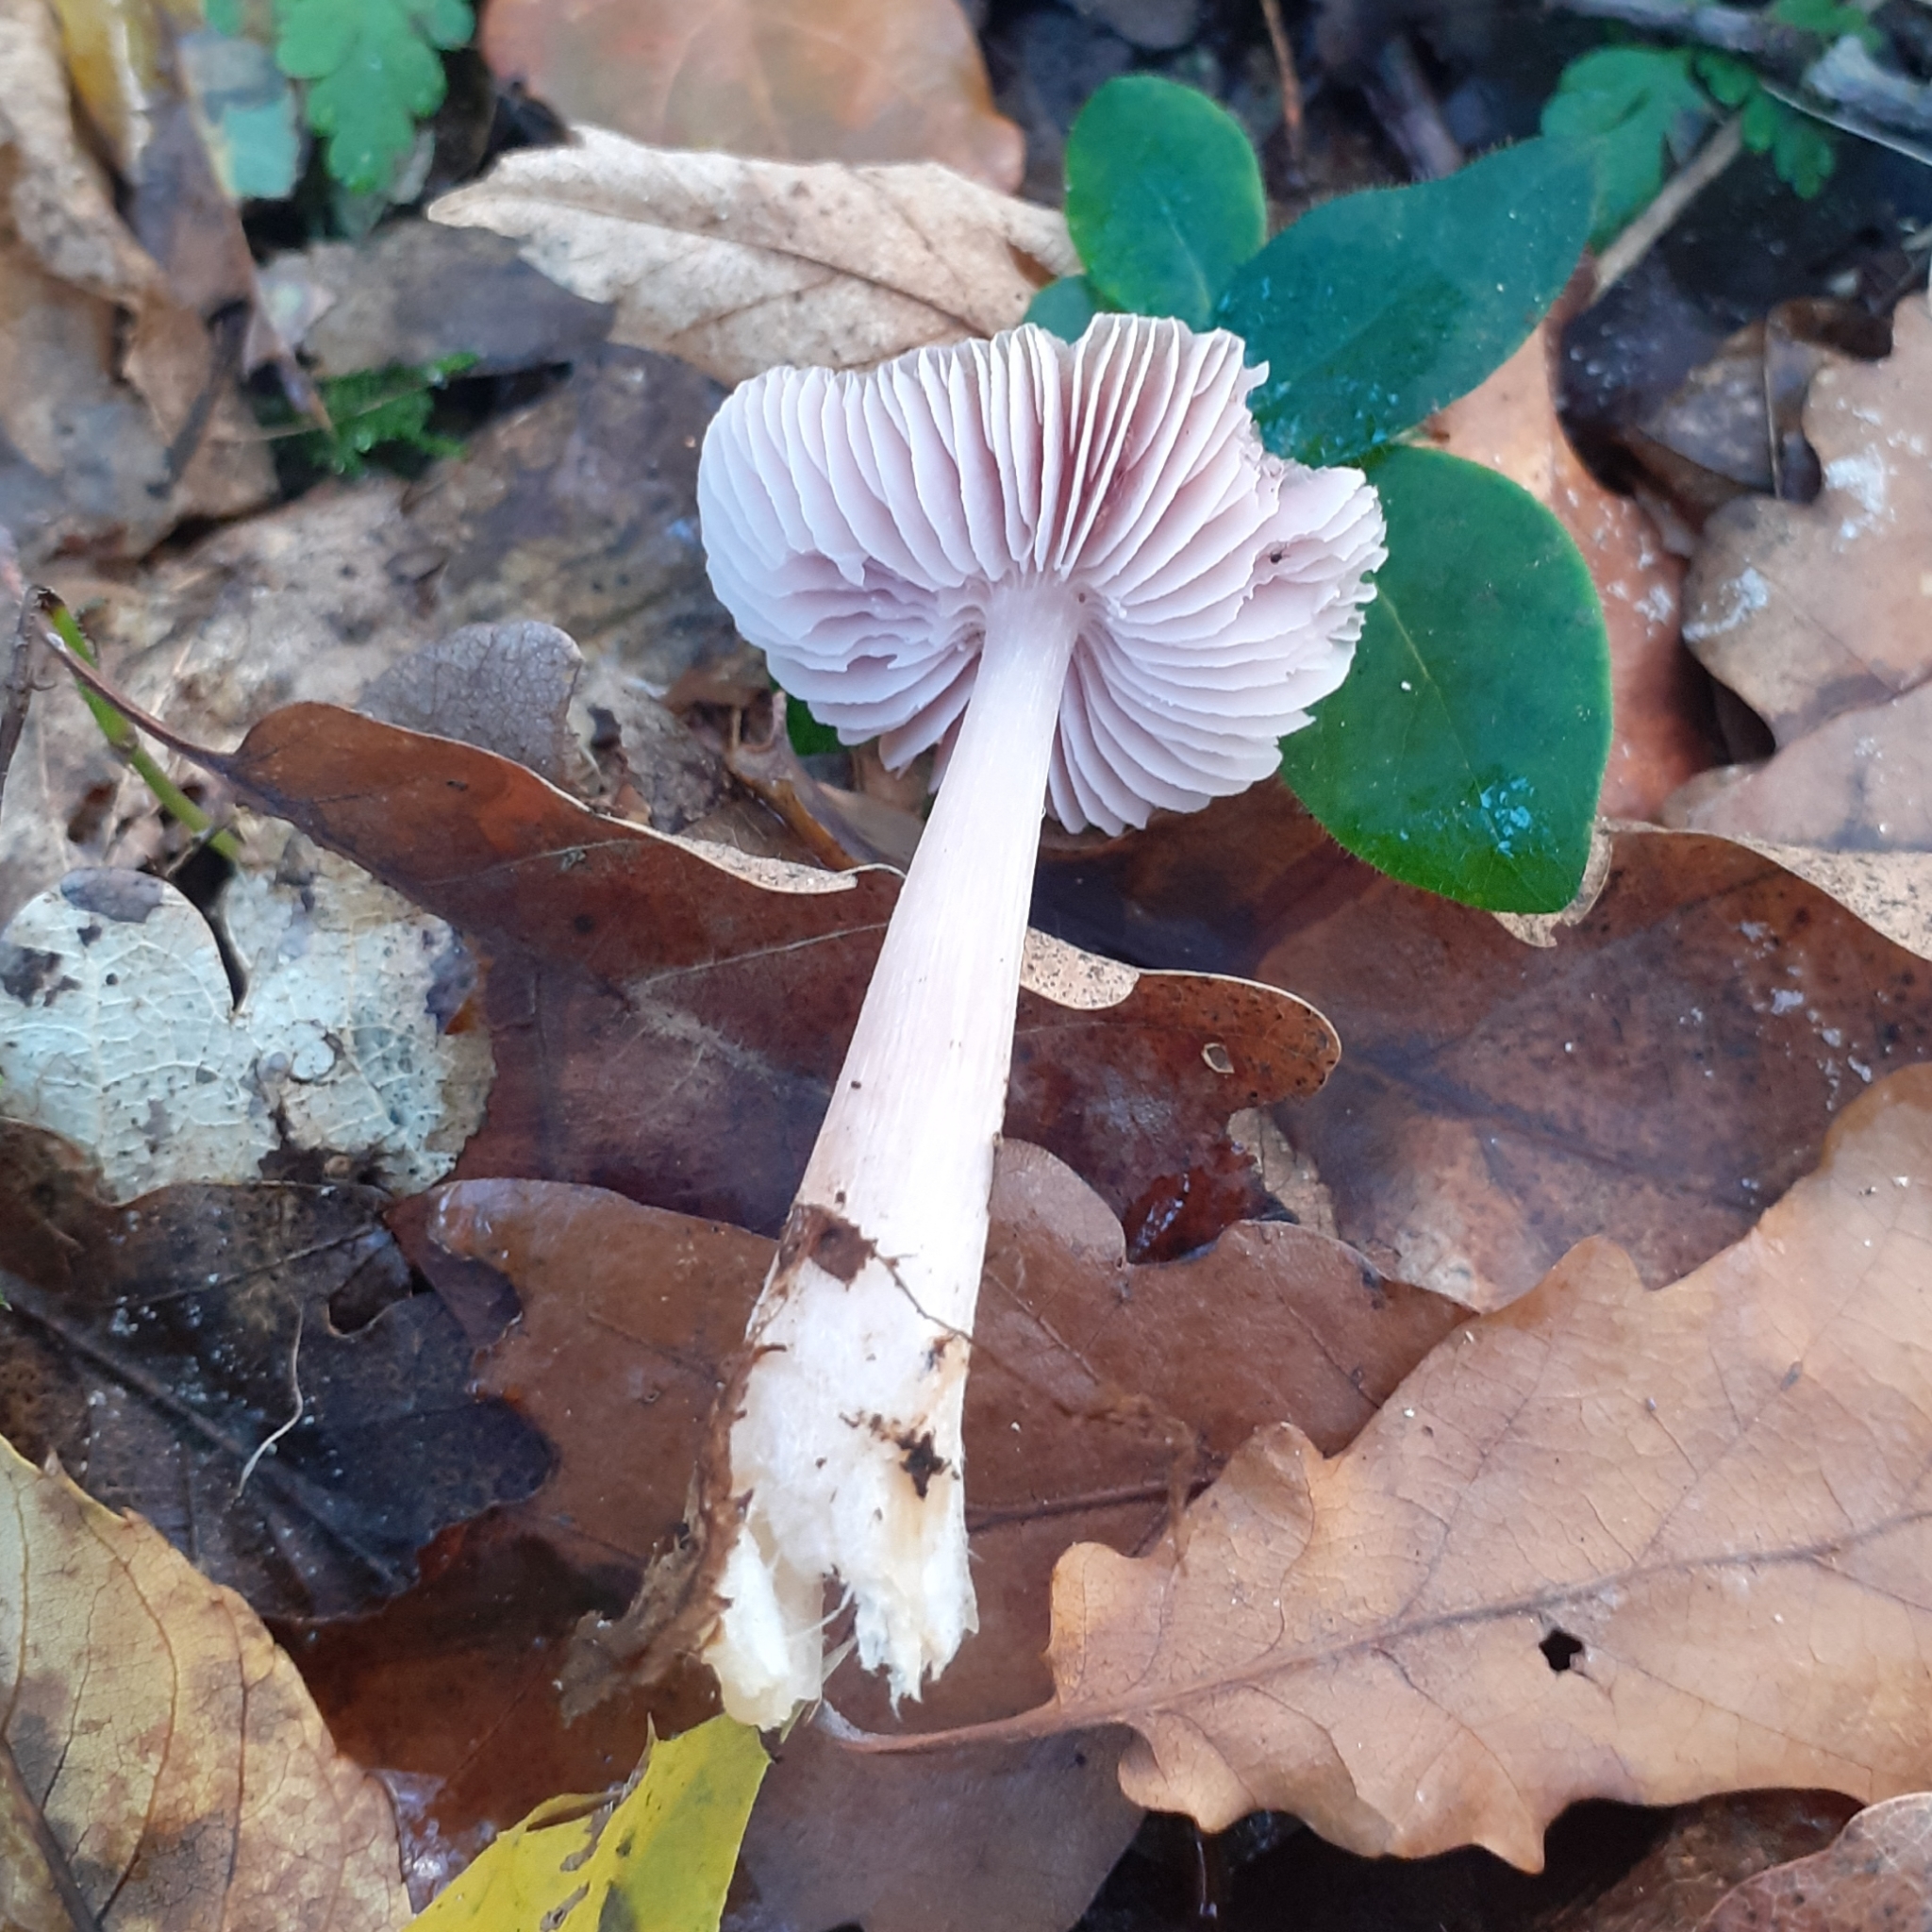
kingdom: Fungi
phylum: Basidiomycota
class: Agaricomycetes
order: Agaricales
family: Mycenaceae
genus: Mycena
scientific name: Mycena rosea
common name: Rosy bonnet
